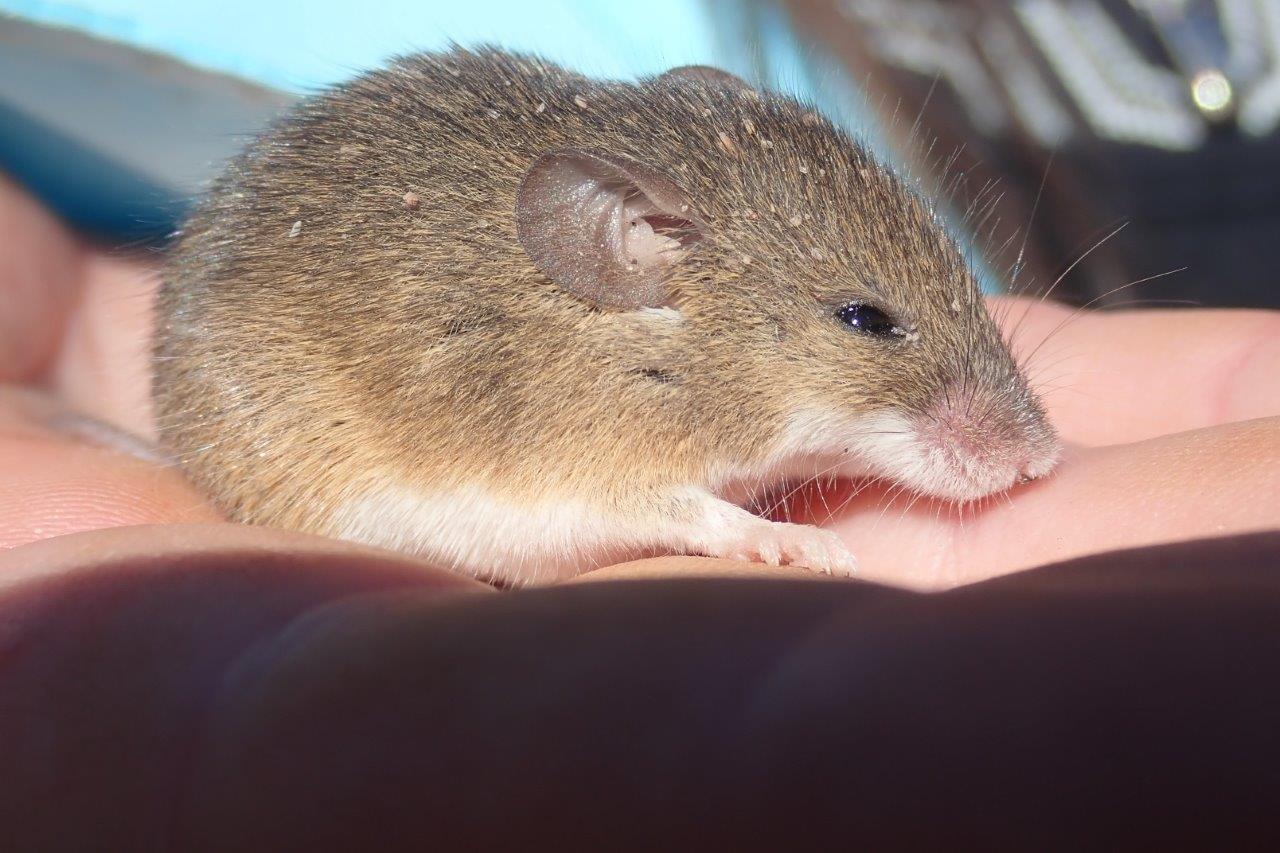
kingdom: Animalia
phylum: Chordata
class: Mammalia
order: Rodentia
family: Muridae
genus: Mus
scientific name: Mus minutoides
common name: Southern african pygmy mouse
